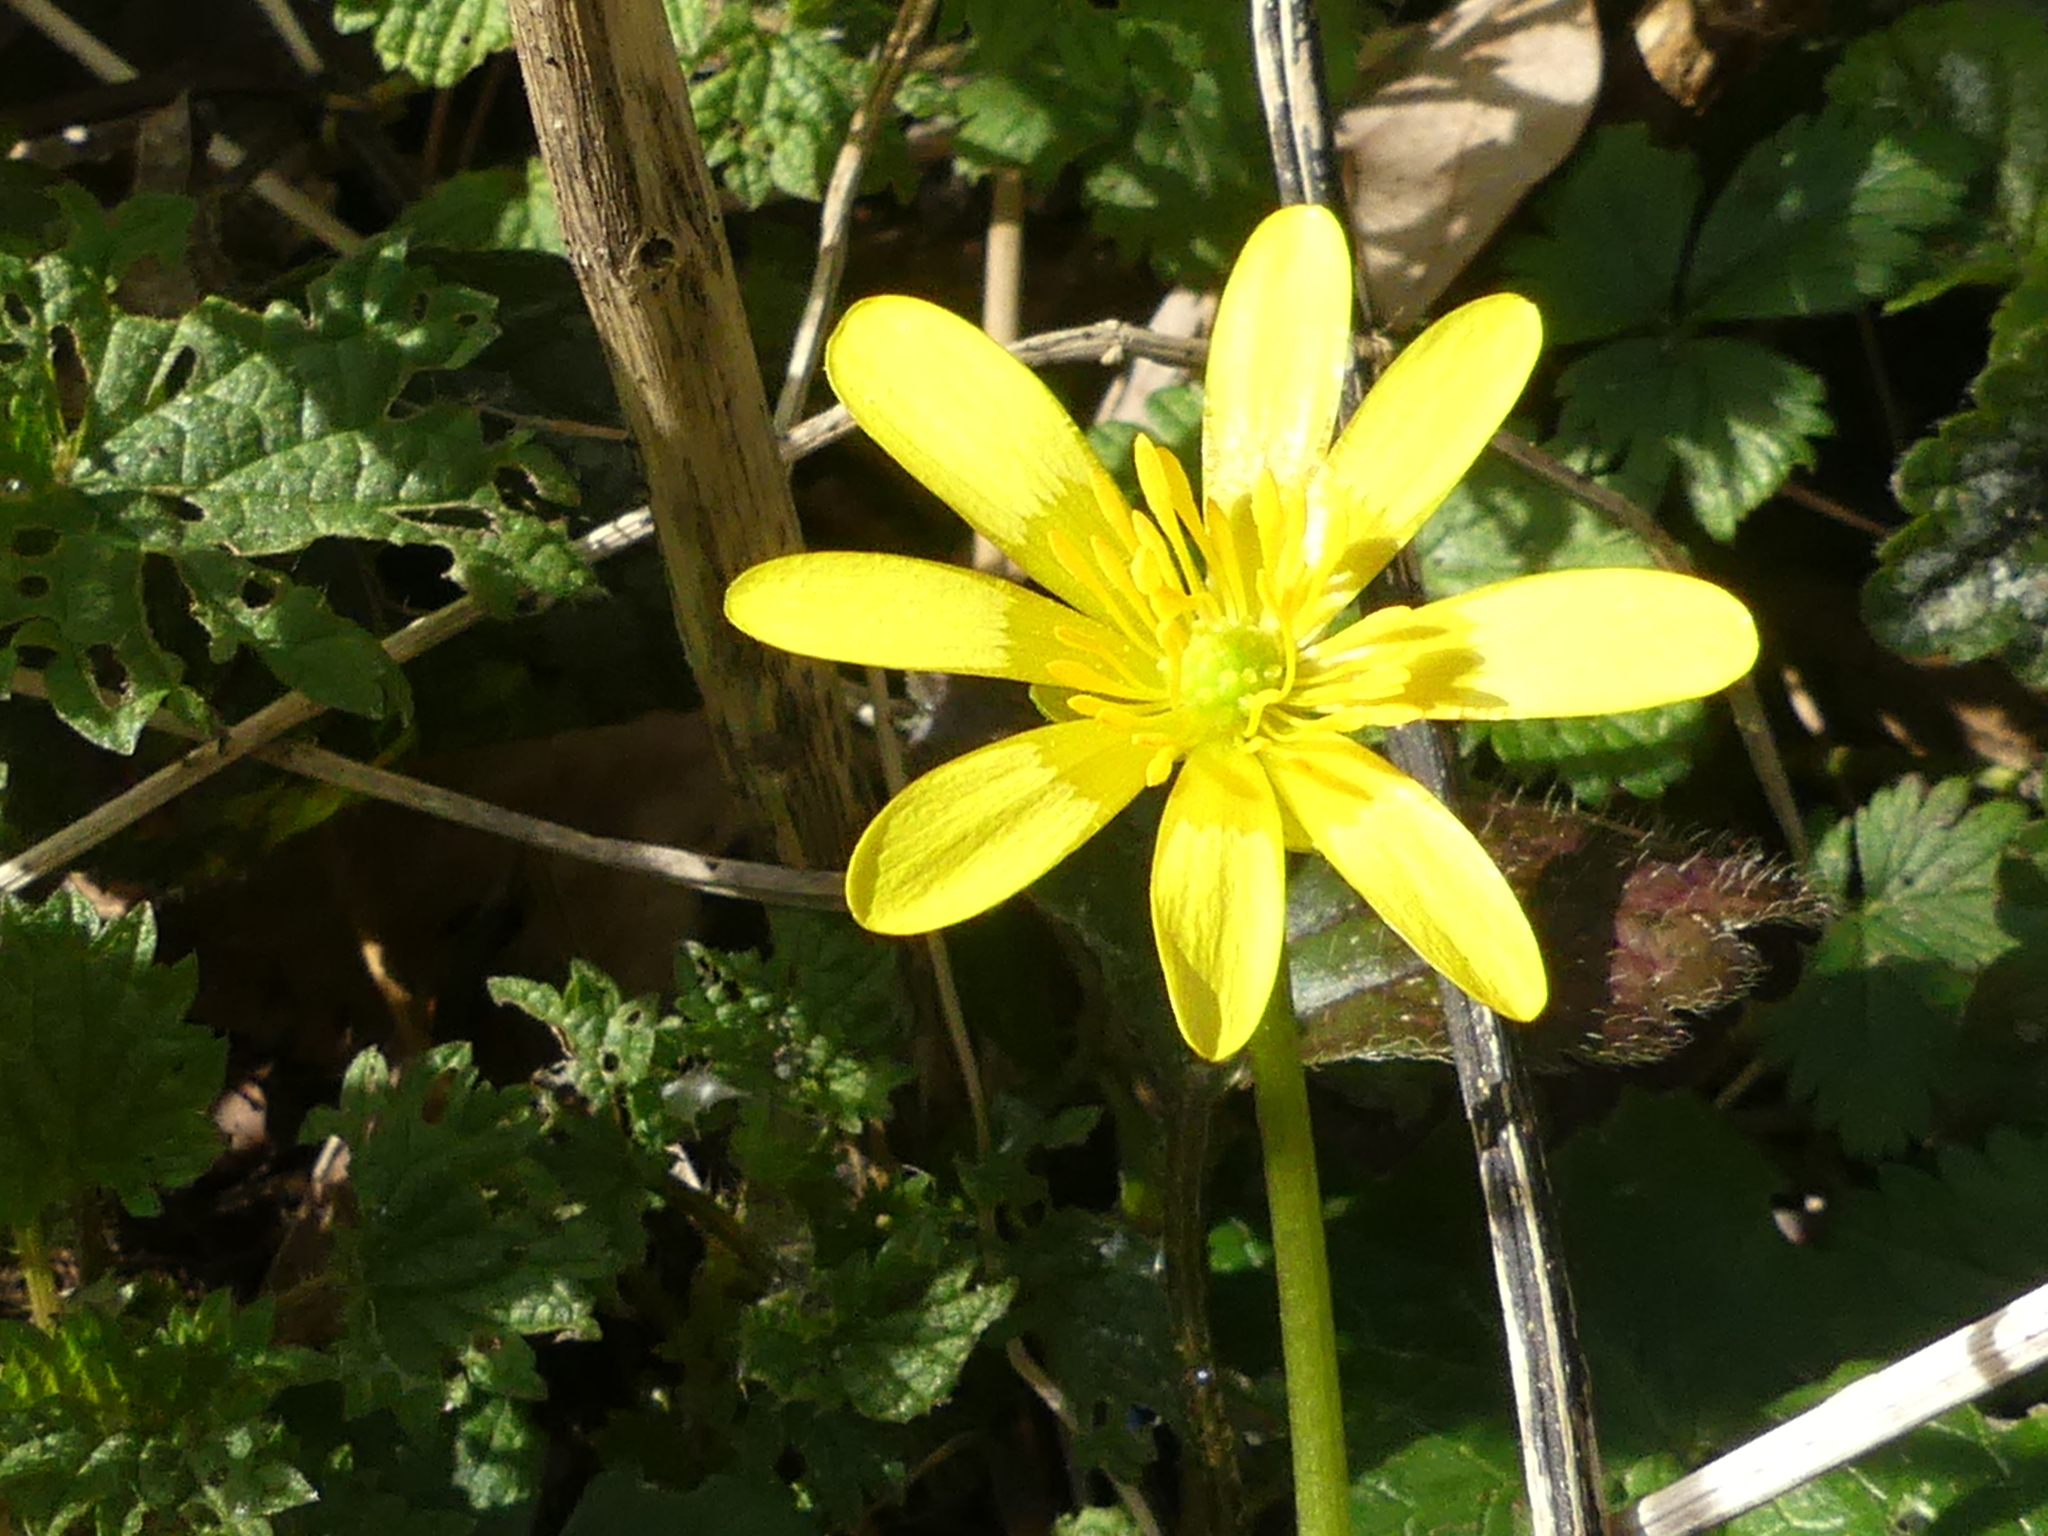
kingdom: Plantae
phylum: Tracheophyta
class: Magnoliopsida
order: Ranunculales
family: Ranunculaceae
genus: Ficaria
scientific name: Ficaria verna
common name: Lesser celandine
